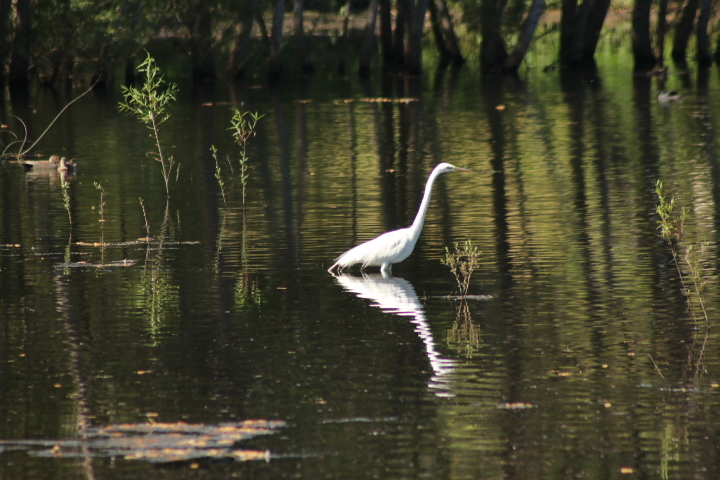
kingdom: Animalia
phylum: Chordata
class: Aves
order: Pelecaniformes
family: Ardeidae
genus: Ardea
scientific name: Ardea alba
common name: Great egret
